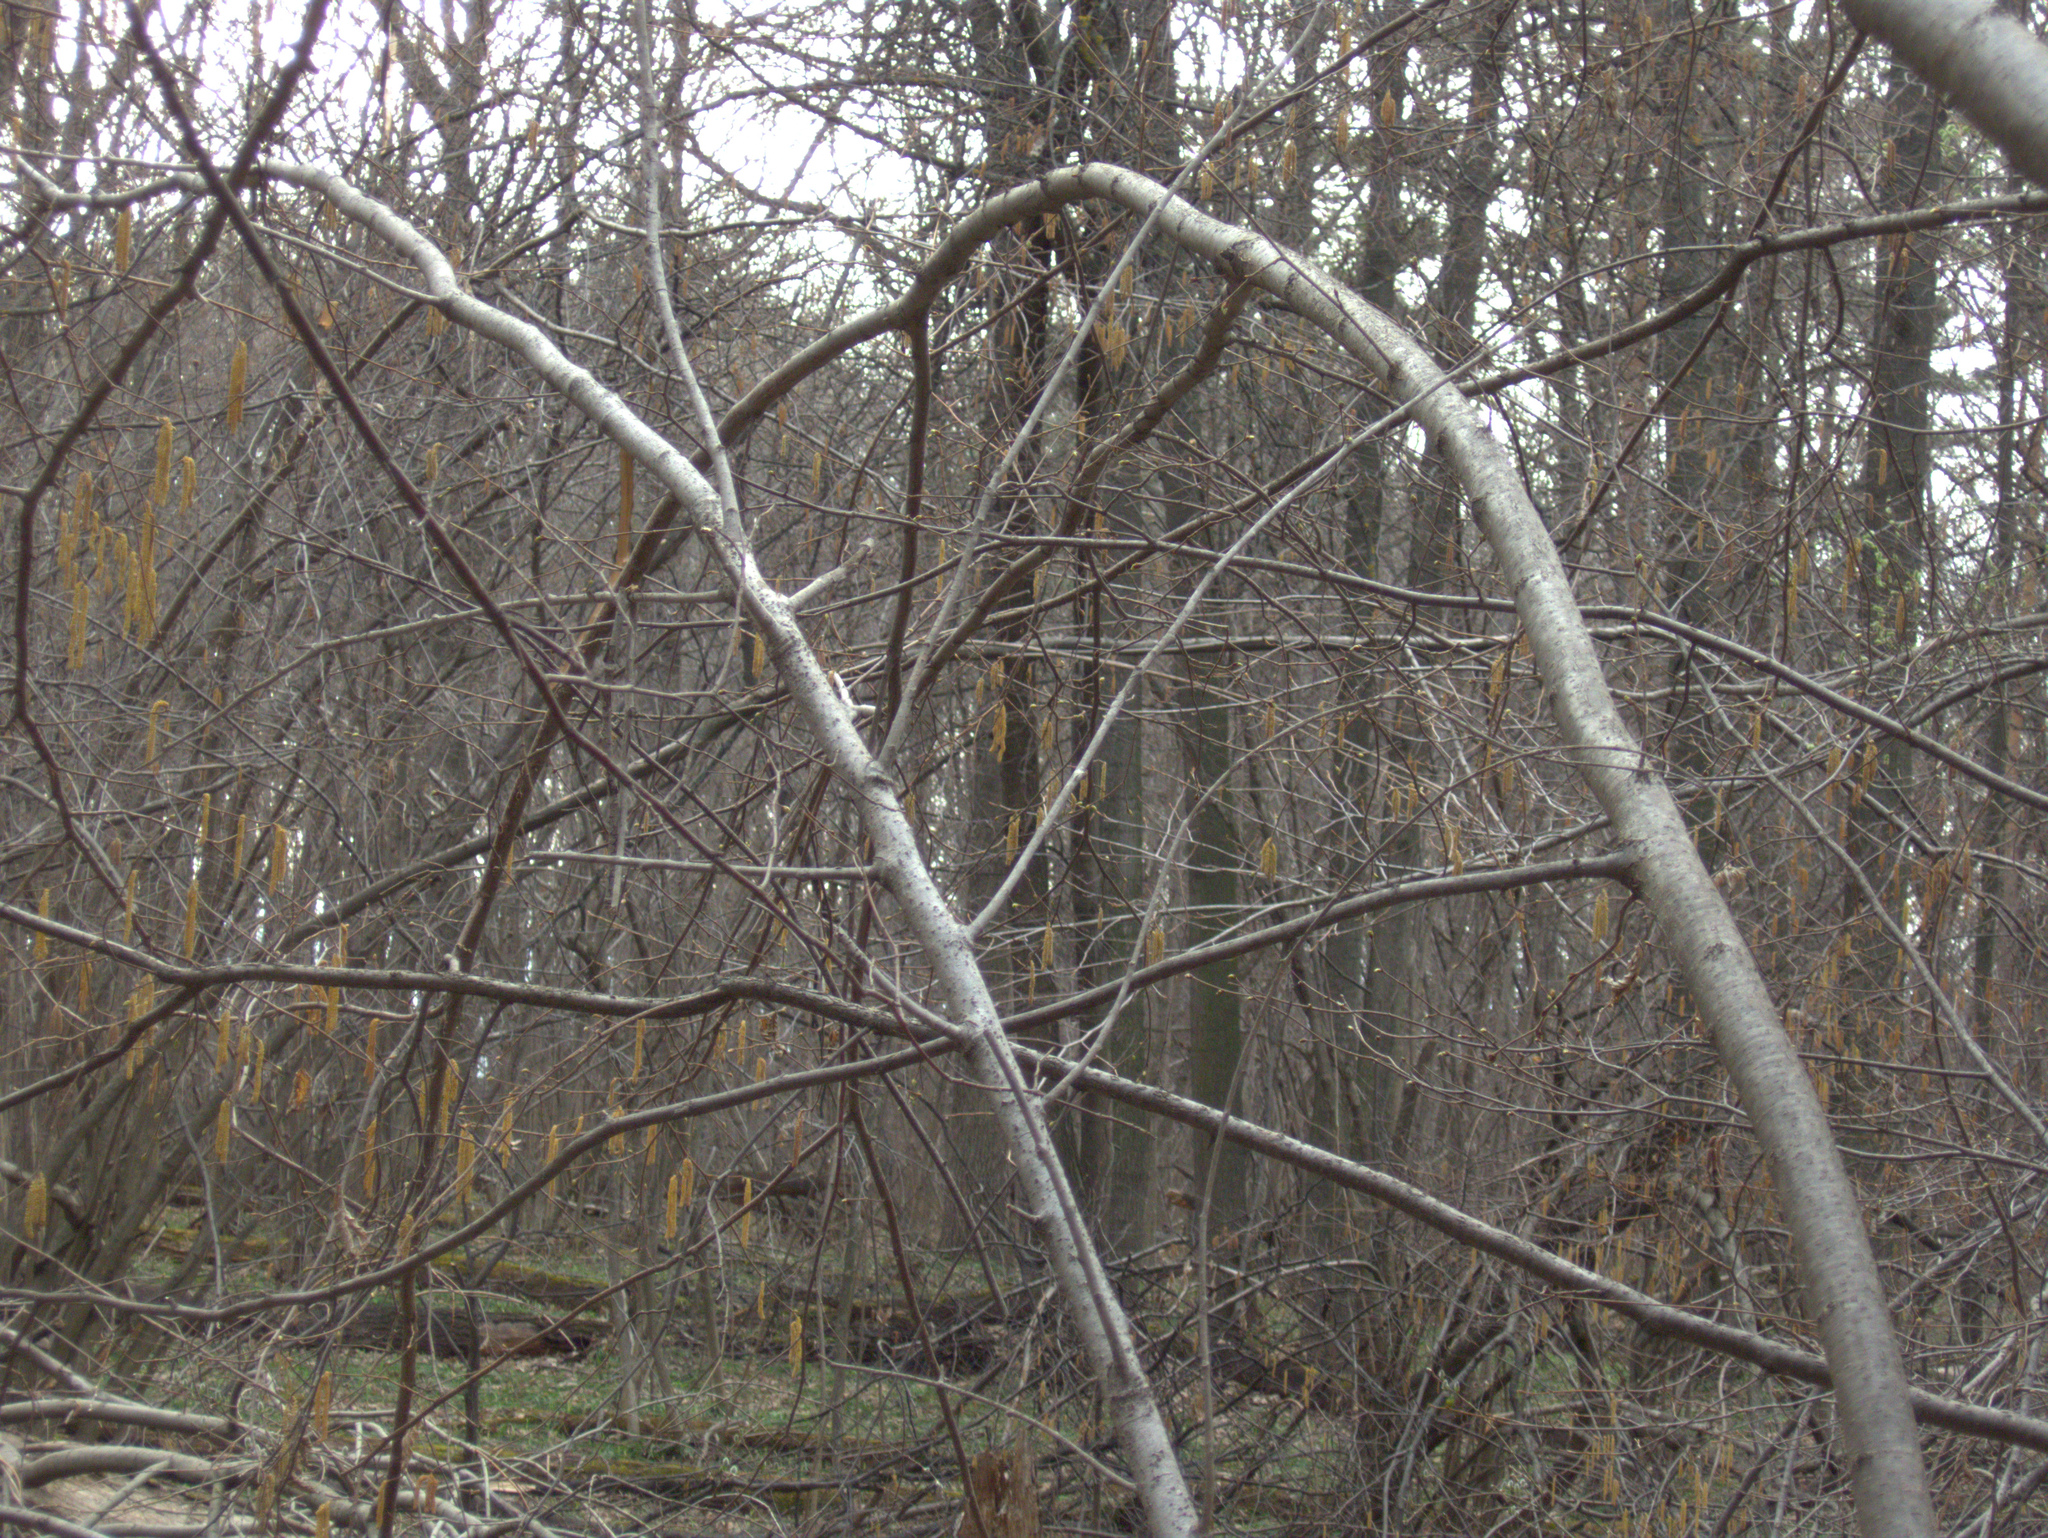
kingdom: Plantae
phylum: Tracheophyta
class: Magnoliopsida
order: Fagales
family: Betulaceae
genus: Corylus
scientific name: Corylus avellana
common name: European hazel
